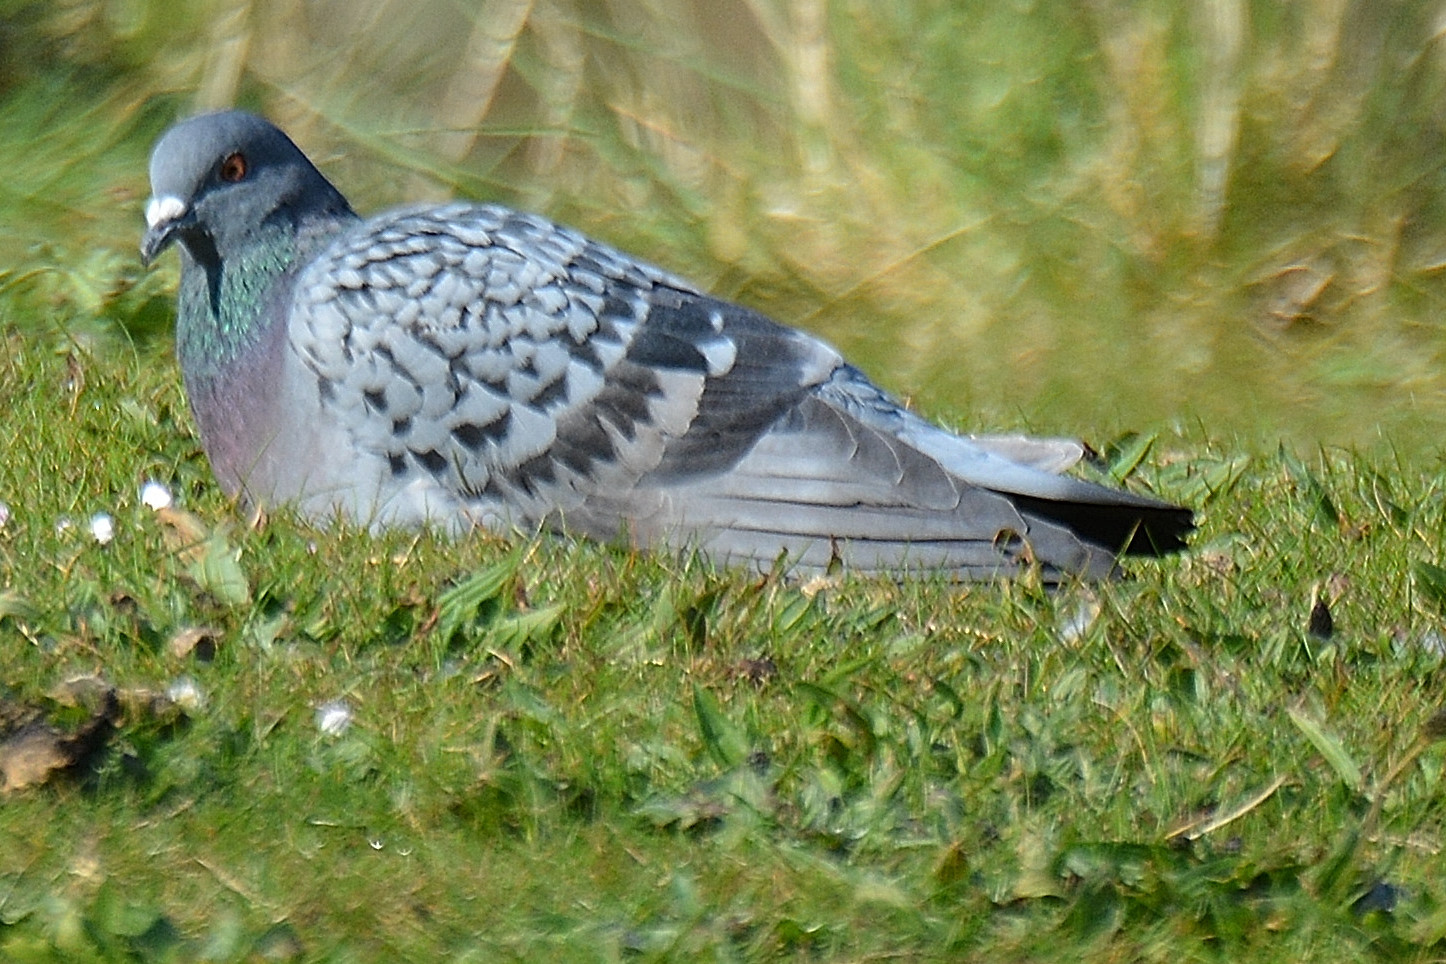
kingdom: Animalia
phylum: Chordata
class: Aves
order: Columbiformes
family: Columbidae
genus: Columba
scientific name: Columba livia
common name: Rock pigeon
